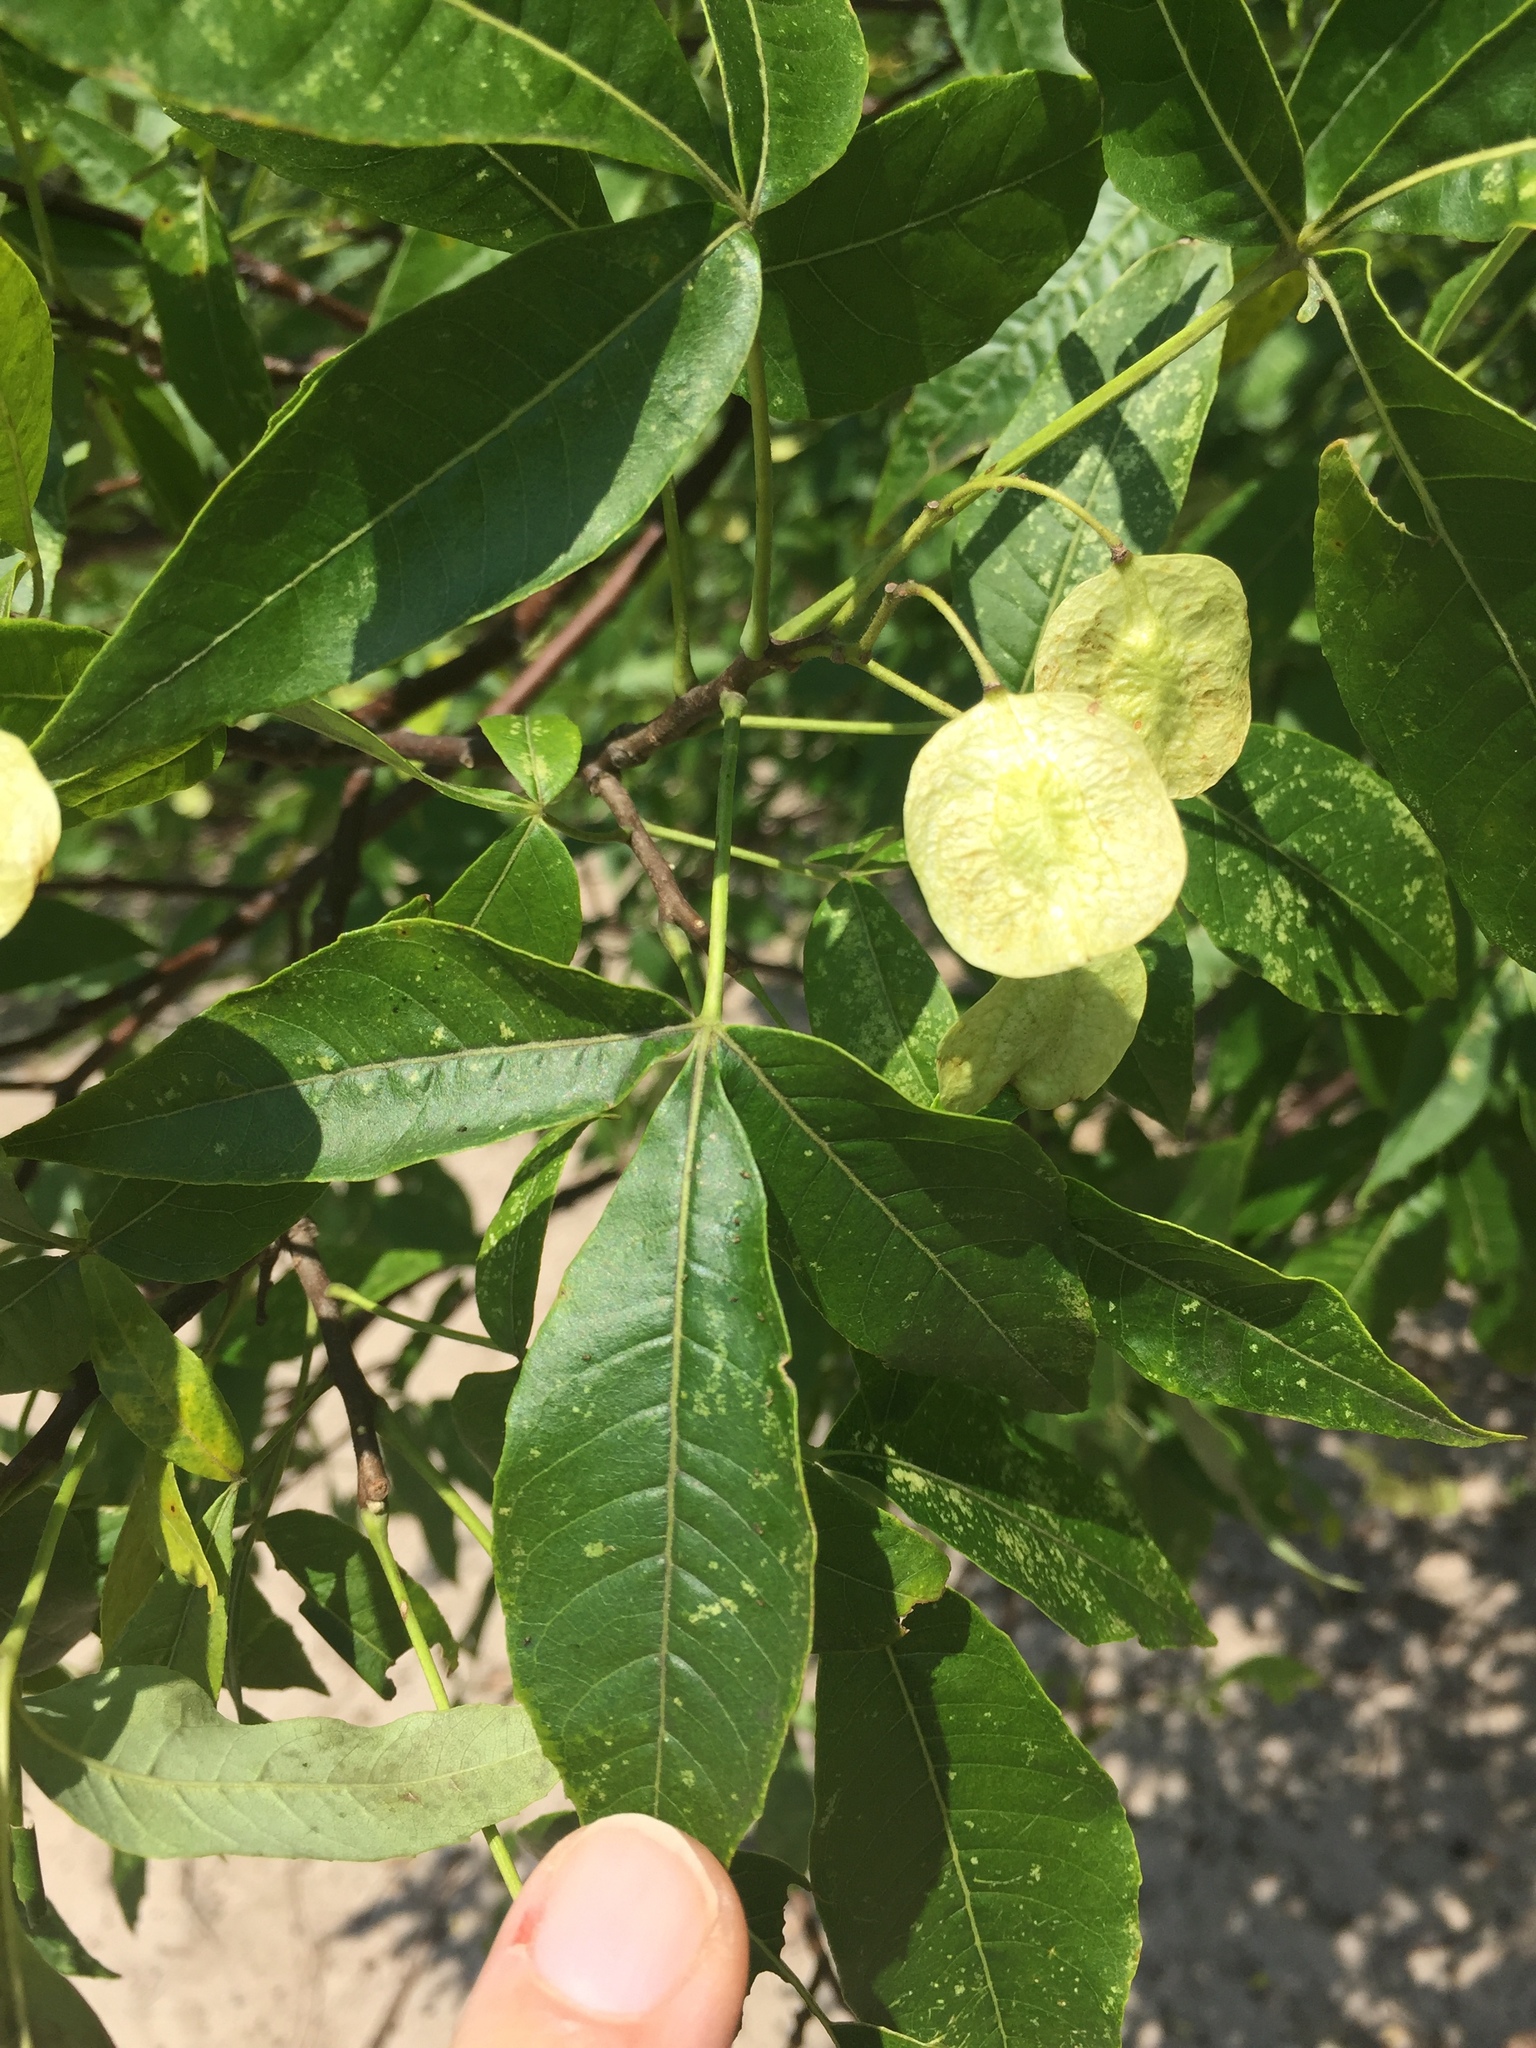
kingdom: Plantae
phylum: Tracheophyta
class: Magnoliopsida
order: Sapindales
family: Rutaceae
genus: Ptelea
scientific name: Ptelea trifoliata
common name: Common hop-tree
